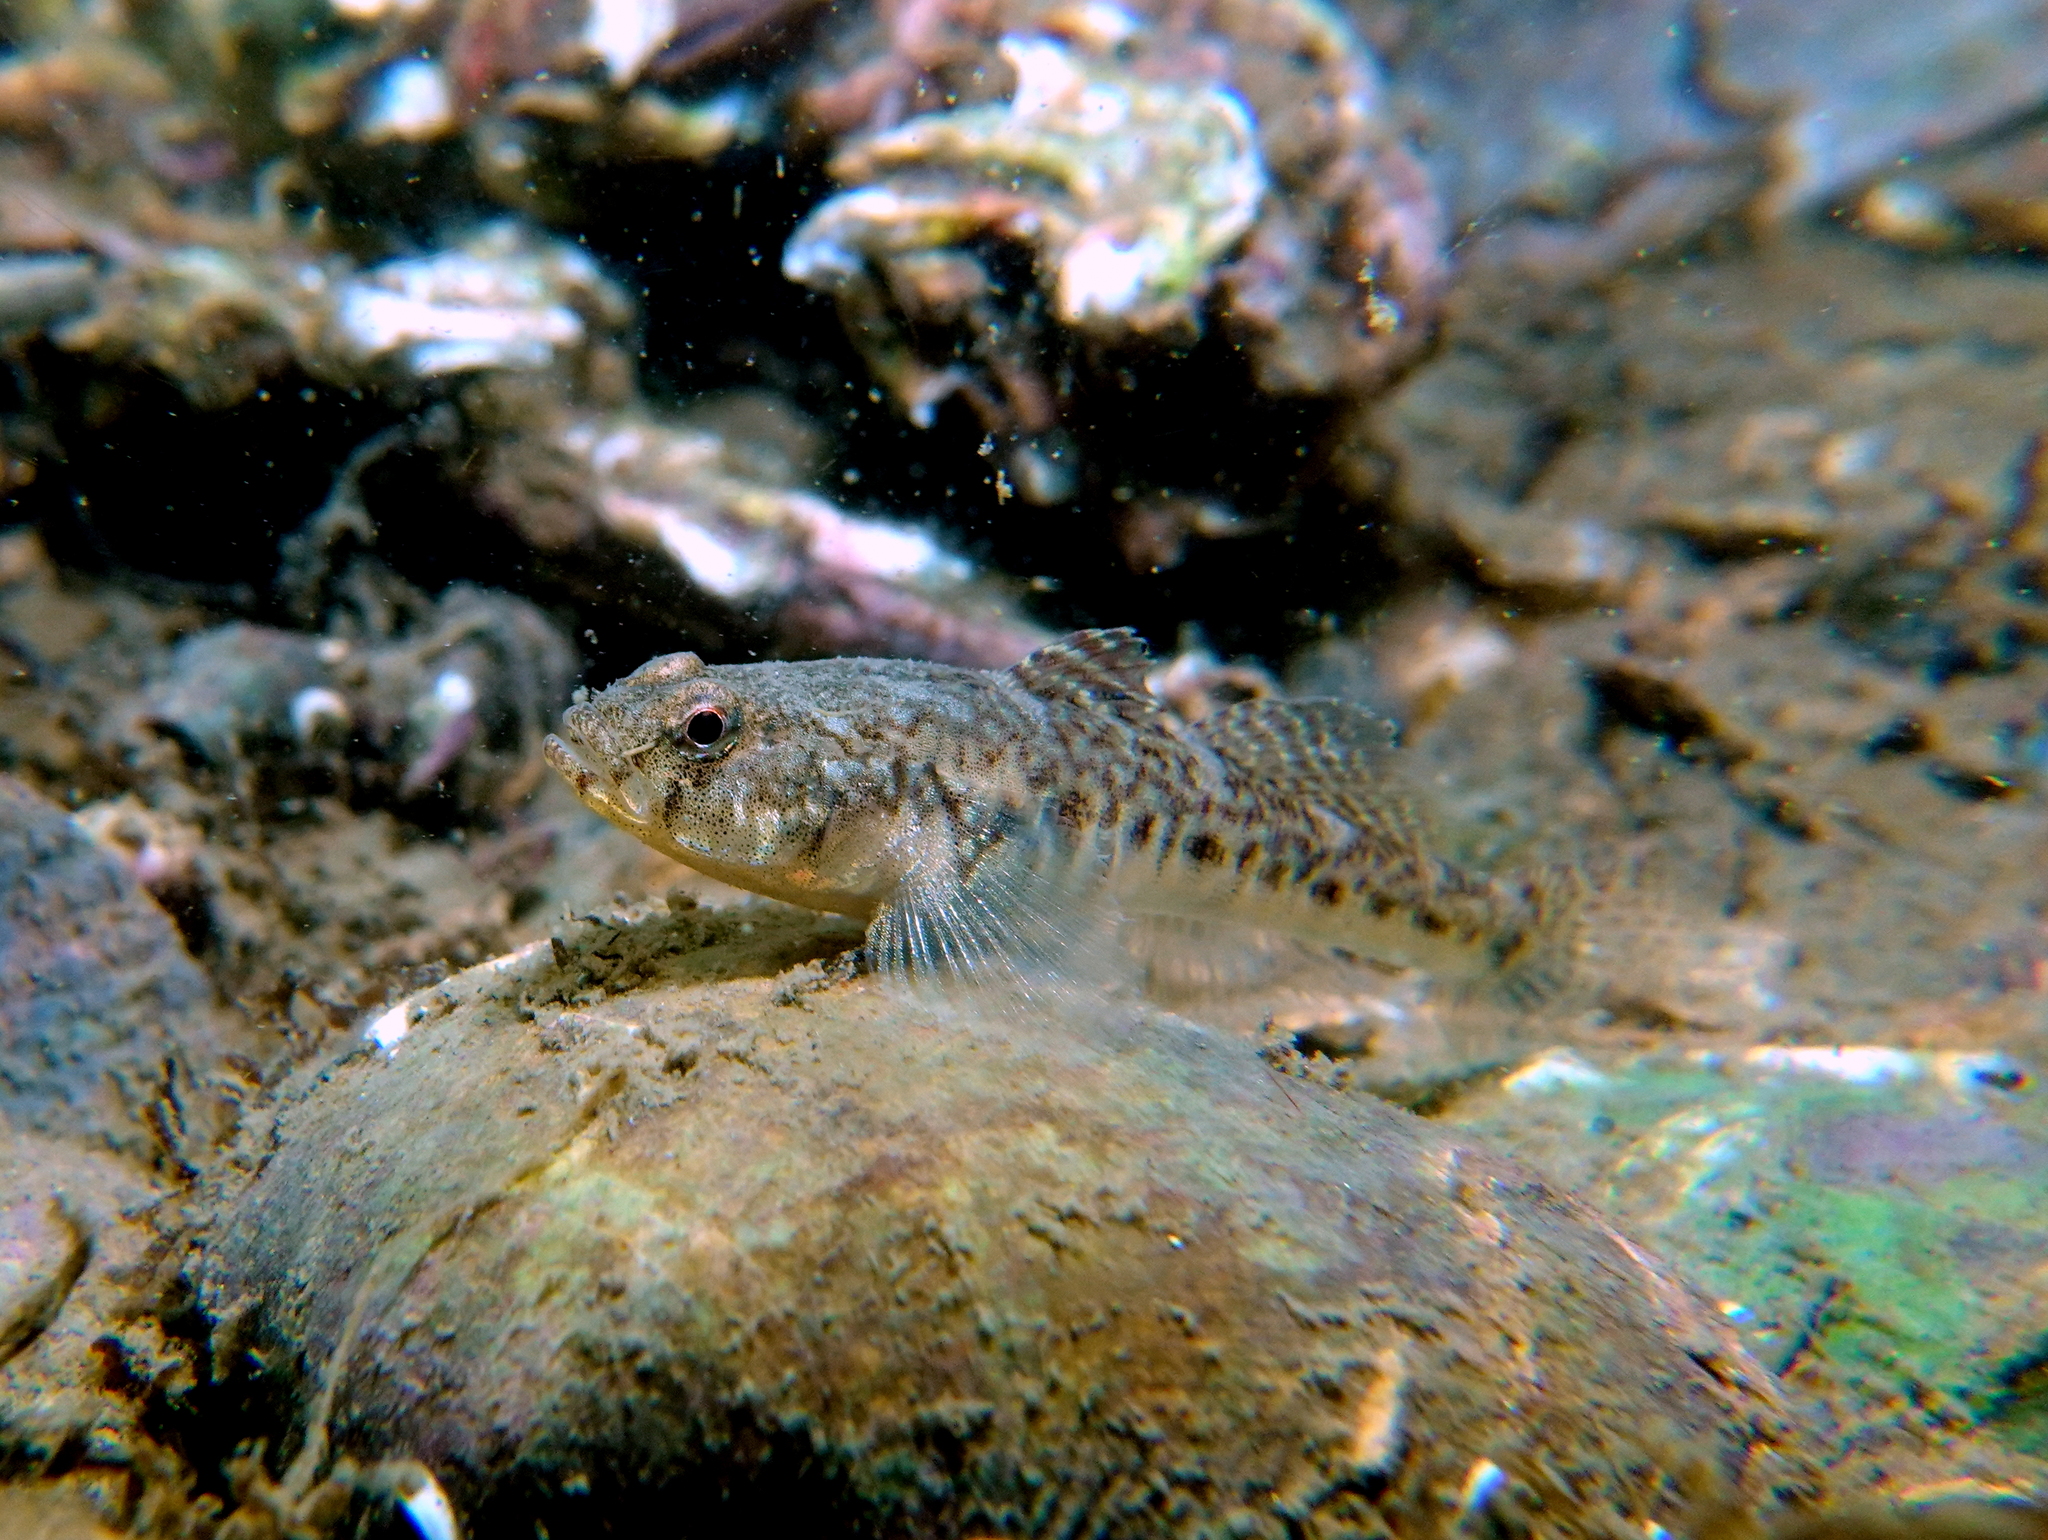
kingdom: Animalia
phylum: Chordata
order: Perciformes
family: Gobiidae
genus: Pomatoschistus
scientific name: Pomatoschistus microps
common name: Common goby
